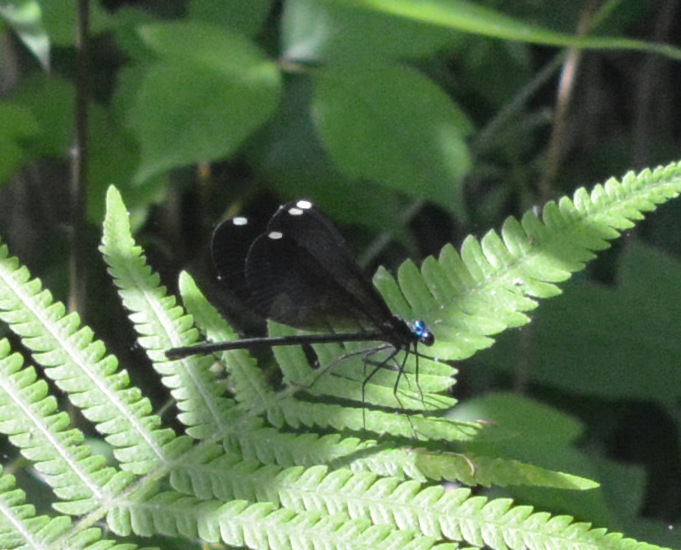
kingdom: Animalia
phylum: Arthropoda
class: Insecta
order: Odonata
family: Calopterygidae
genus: Calopteryx
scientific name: Calopteryx maculata
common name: Ebony jewelwing
